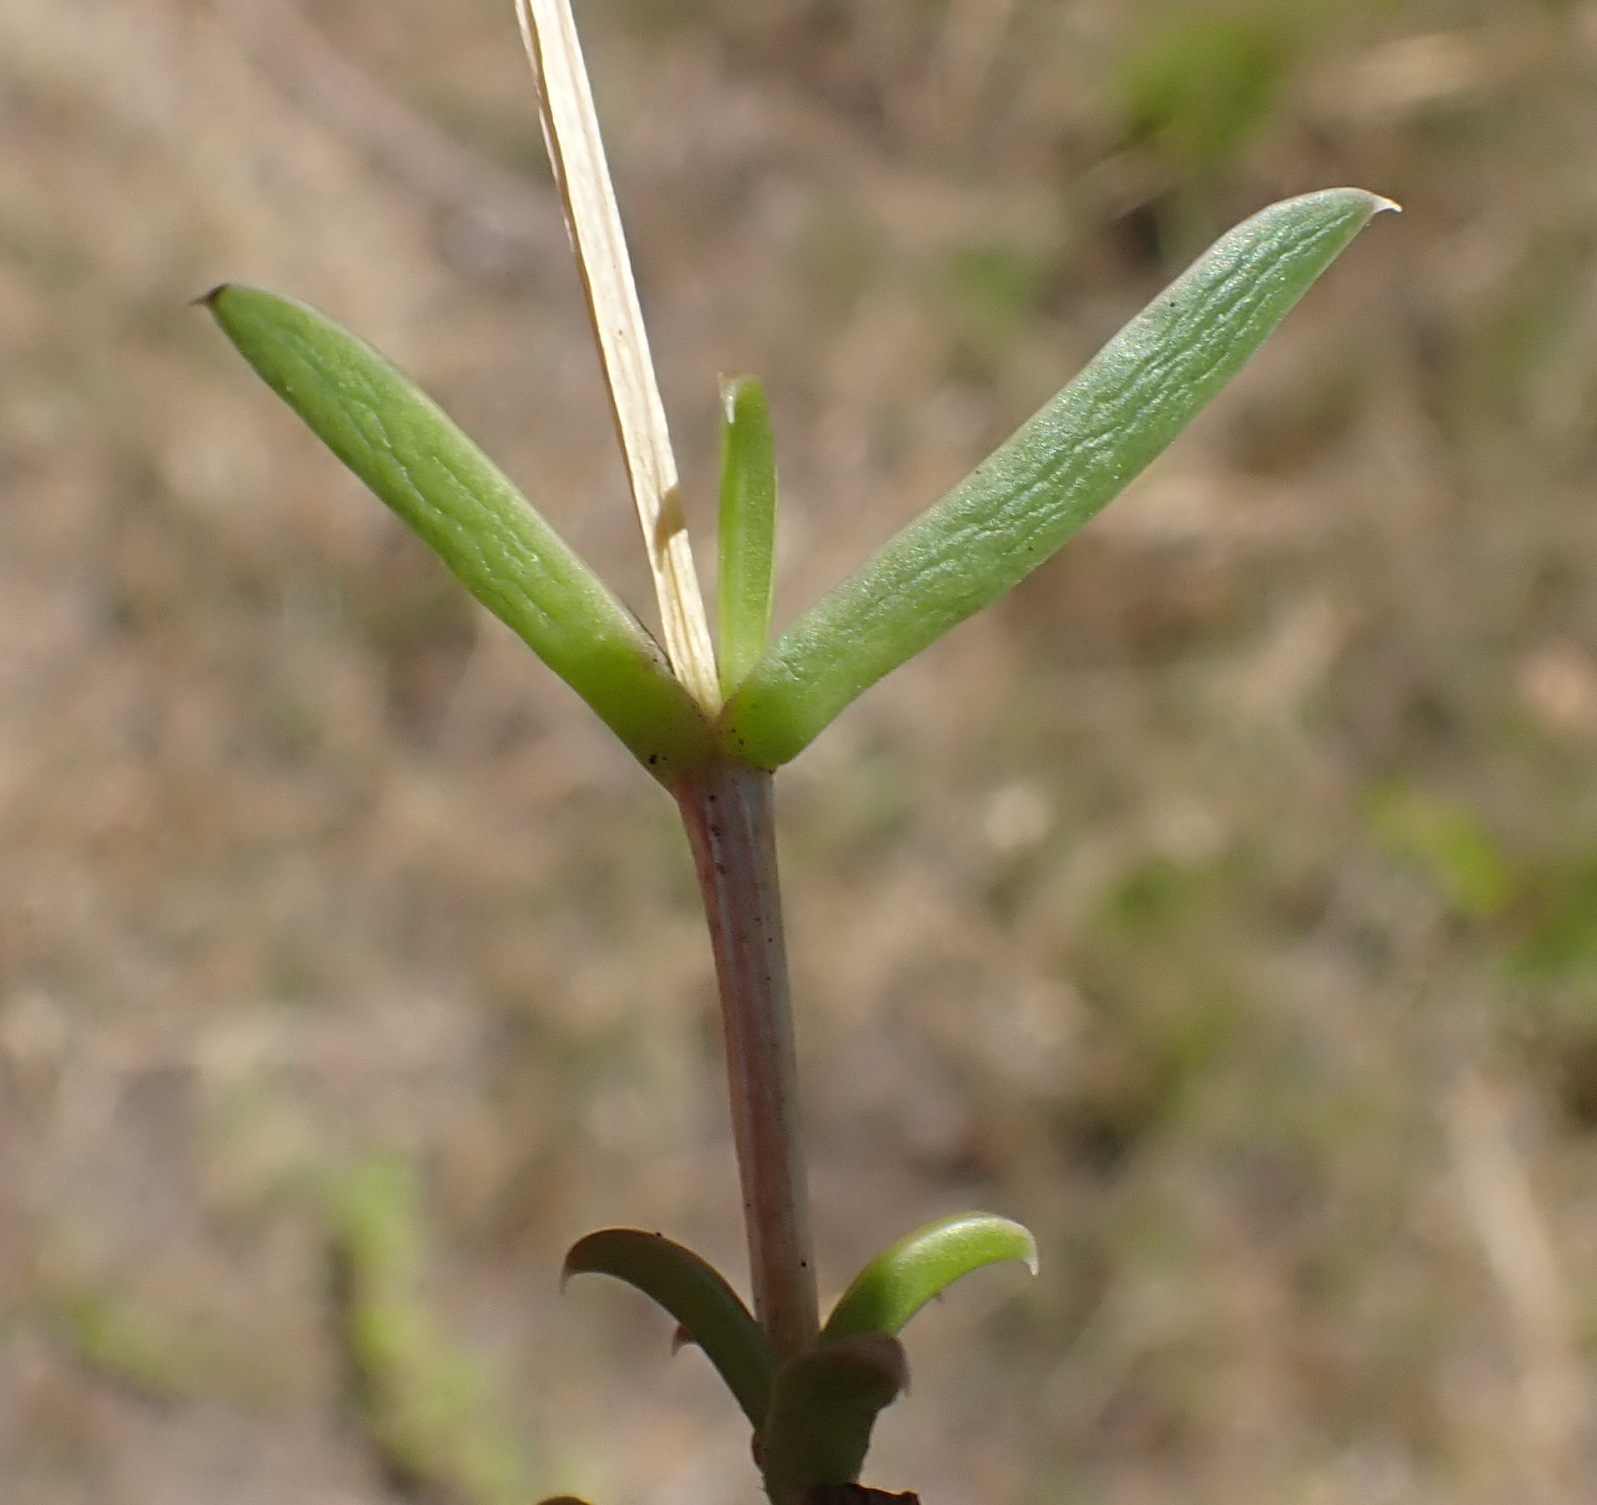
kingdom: Plantae
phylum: Tracheophyta
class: Magnoliopsida
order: Caryophyllales
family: Aizoaceae
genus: Delosperma
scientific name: Delosperma inconspicuum
